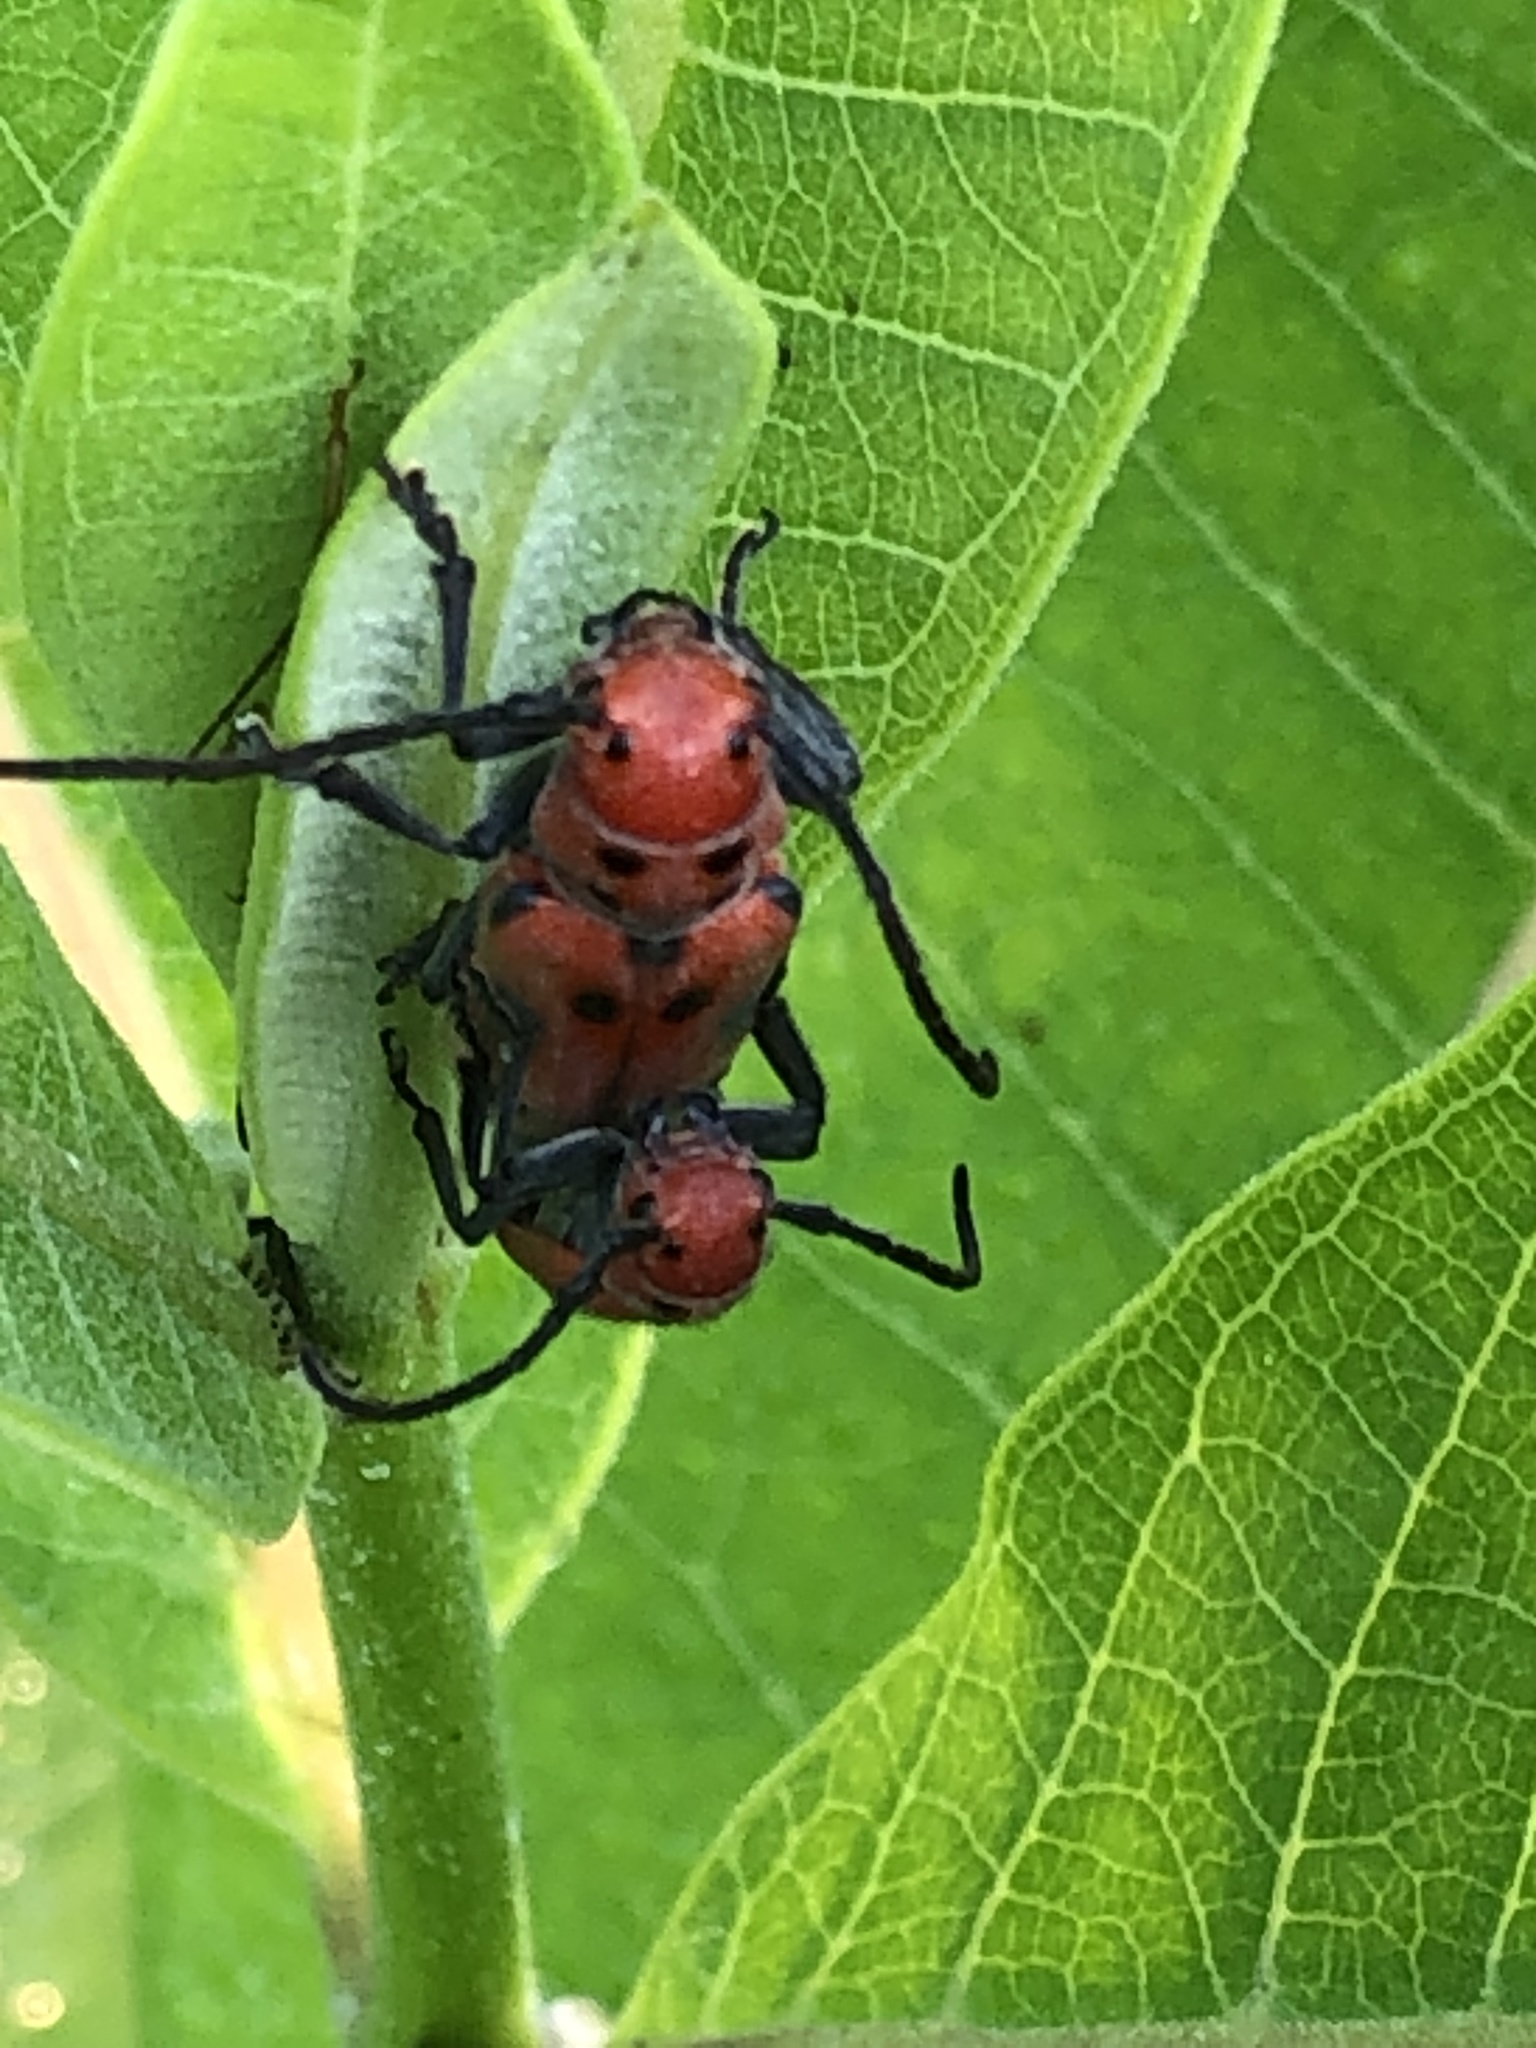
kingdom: Animalia
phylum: Arthropoda
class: Insecta
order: Coleoptera
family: Cerambycidae
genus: Tetraopes
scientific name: Tetraopes tetrophthalmus
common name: Red milkweed beetle
